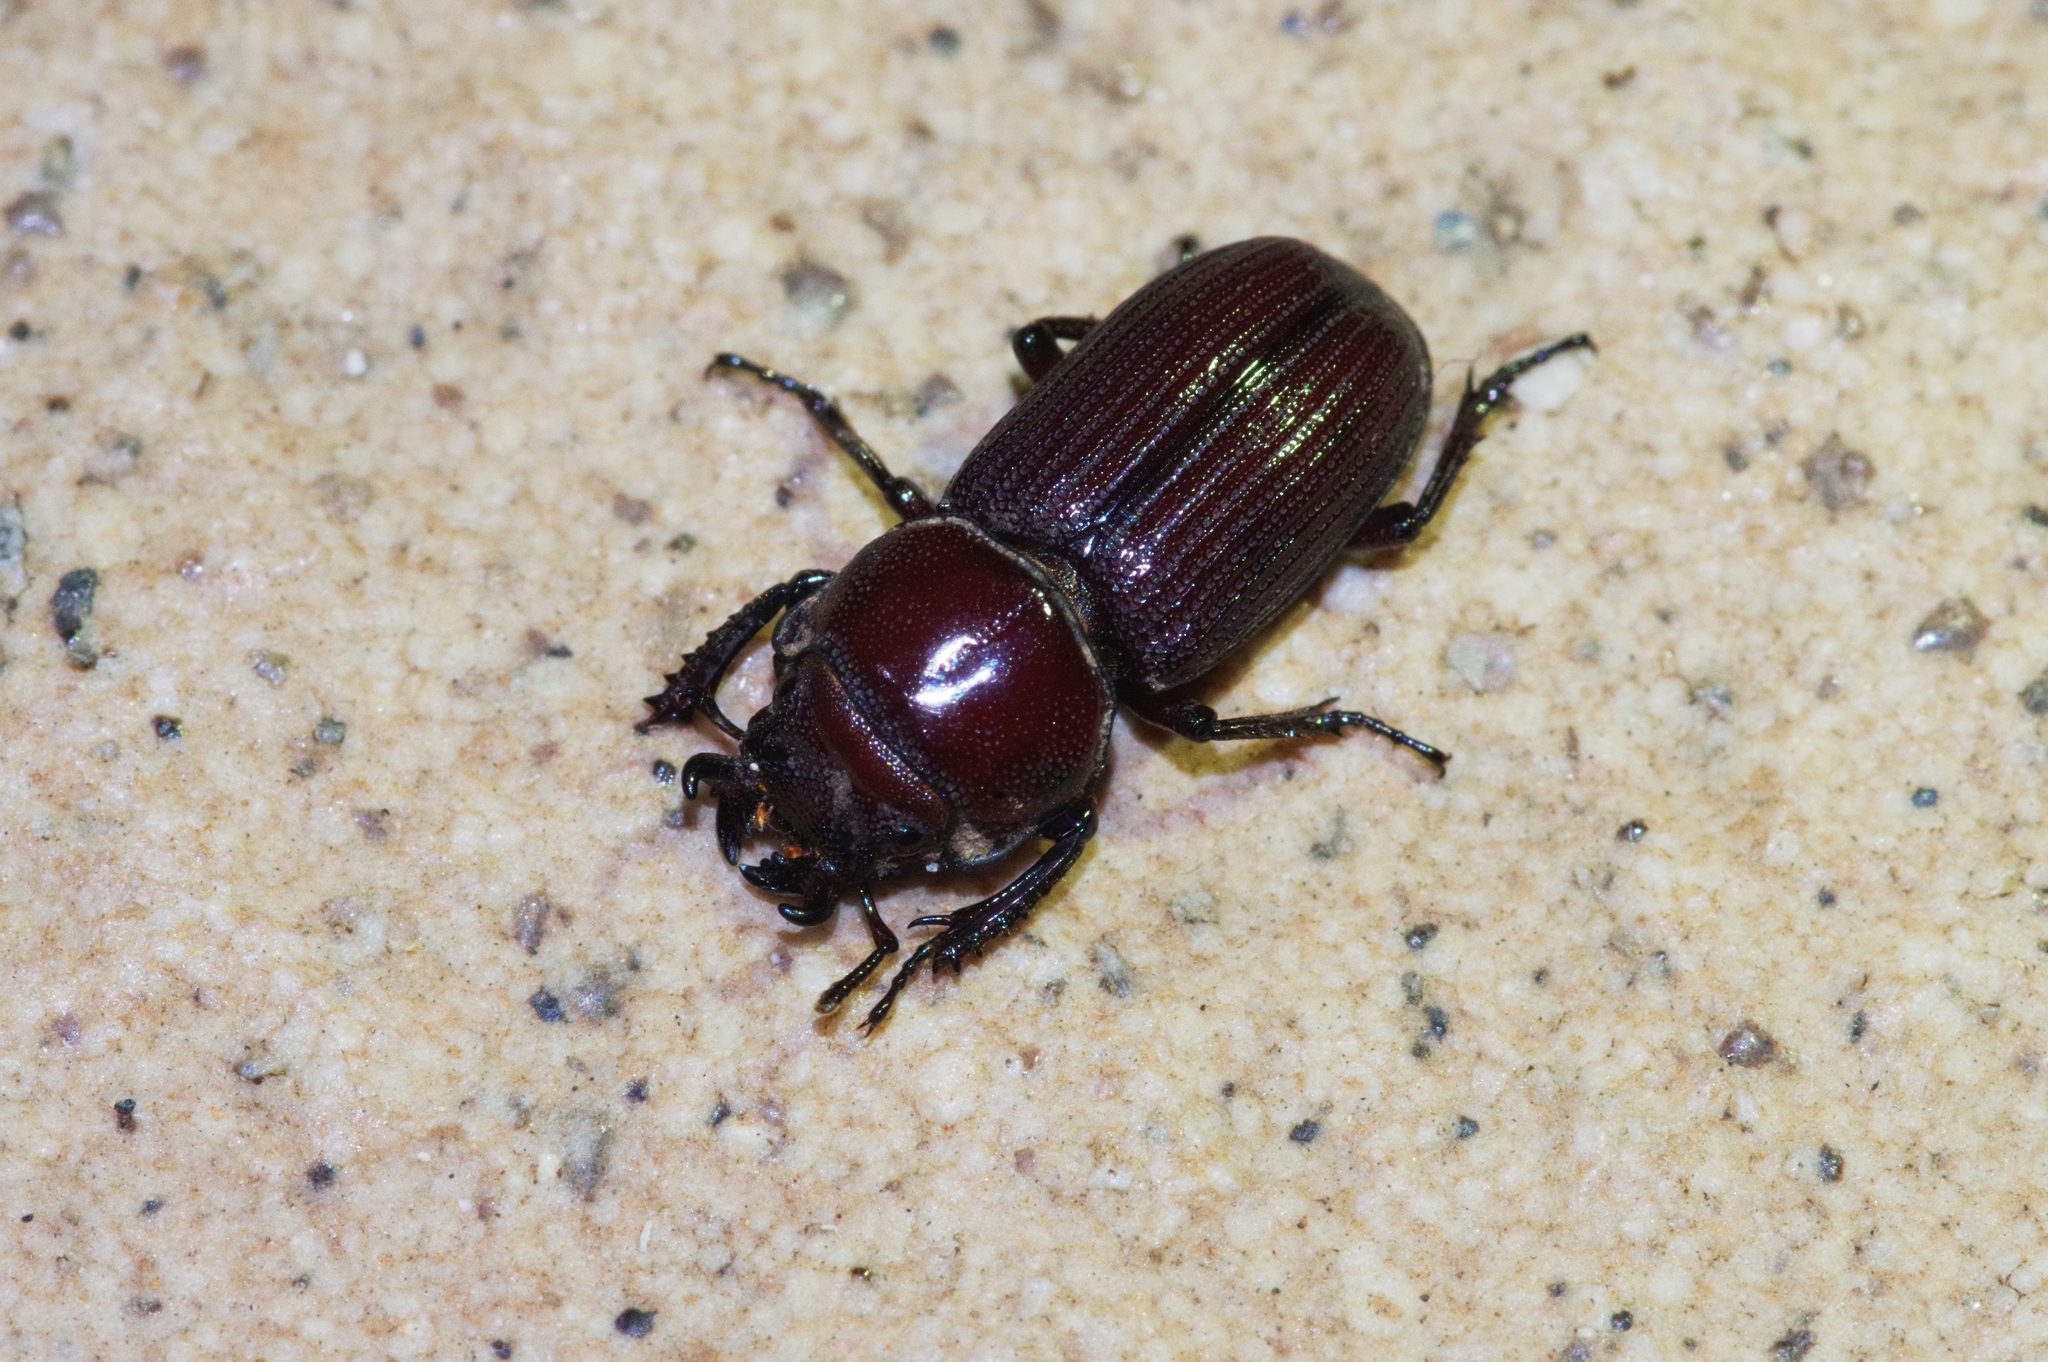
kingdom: Animalia
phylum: Arthropoda
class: Insecta
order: Coleoptera
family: Lucanidae
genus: Nigidius
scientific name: Nigidius lewisi
